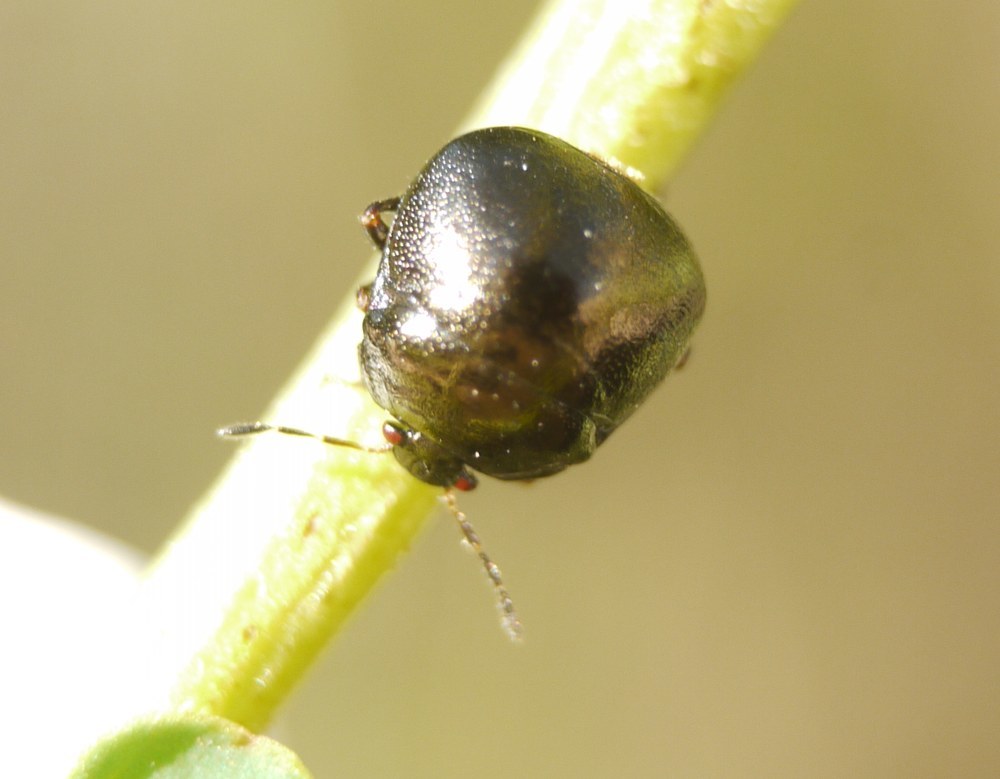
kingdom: Animalia
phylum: Arthropoda
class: Insecta
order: Hemiptera
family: Plataspidae
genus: Coptosoma
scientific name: Coptosoma scutellatum
